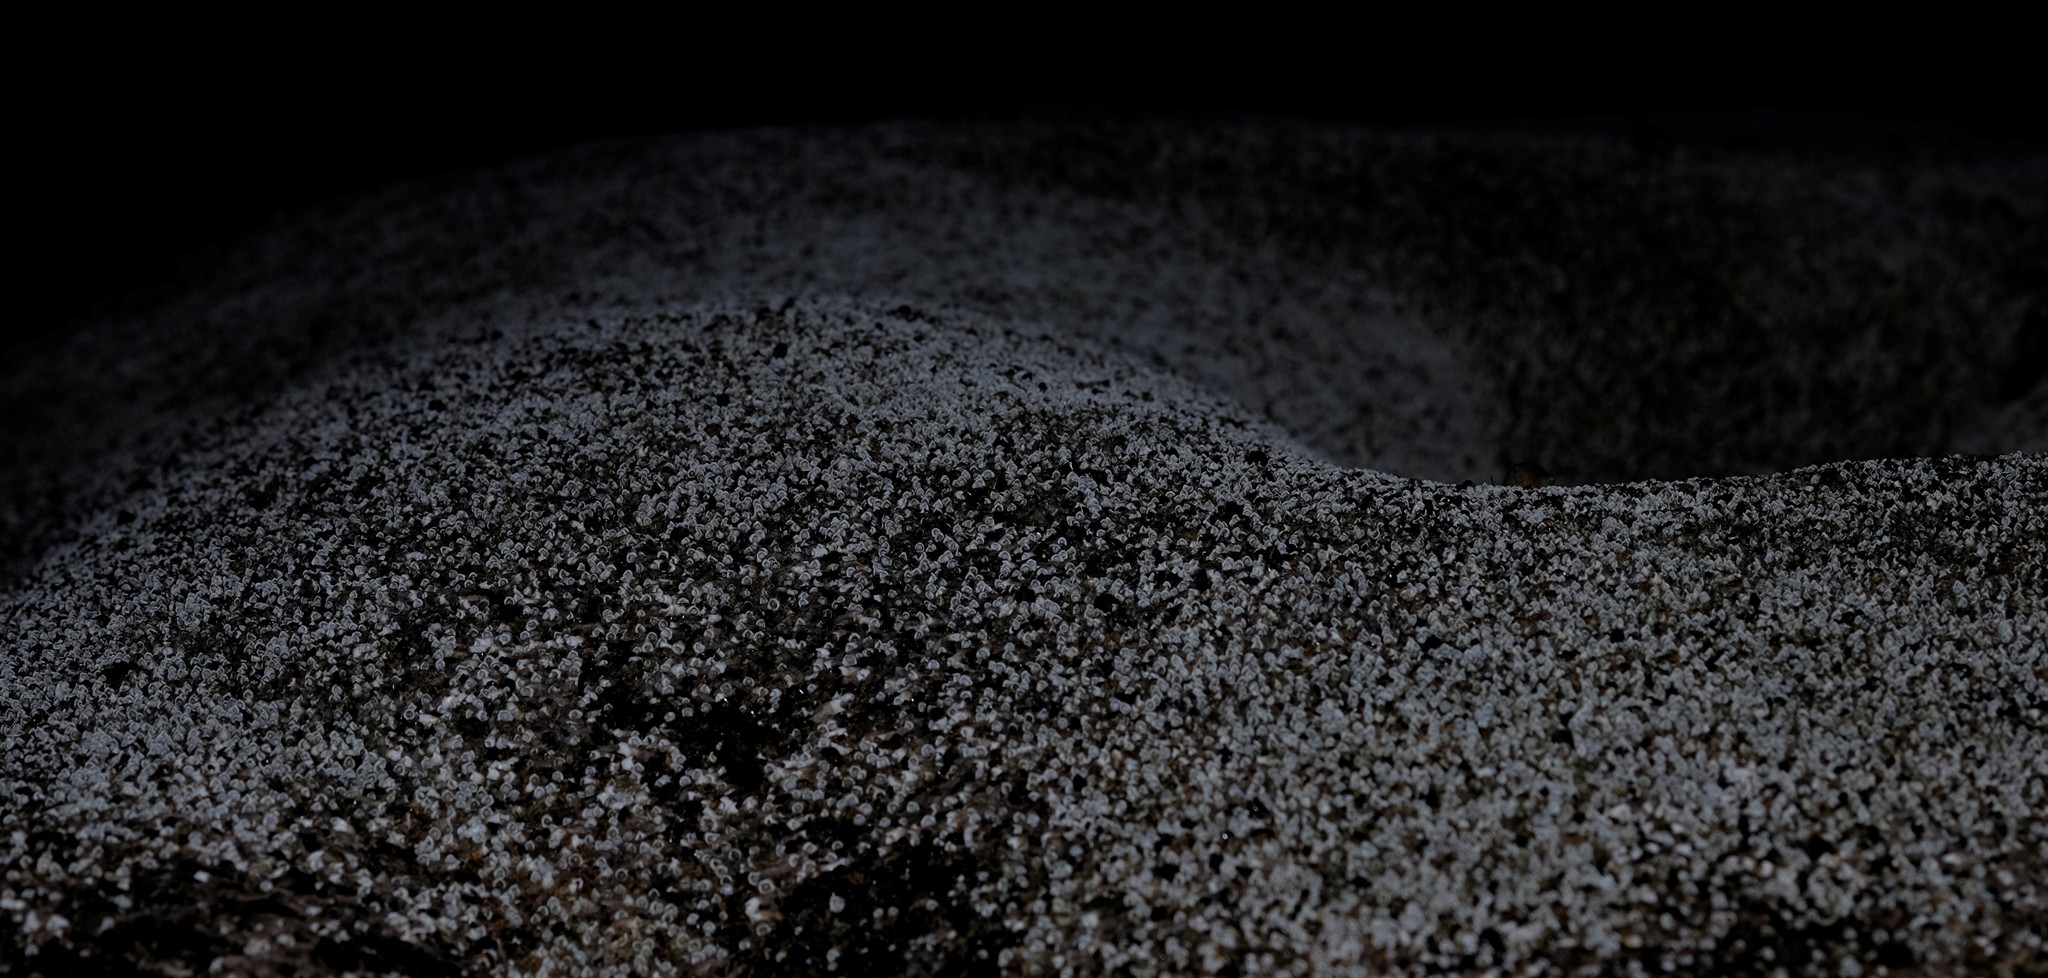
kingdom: Animalia
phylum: Annelida
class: Polychaeta
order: Sabellida
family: Serpulidae
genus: Galeolaria
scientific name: Galeolaria caespitosa
